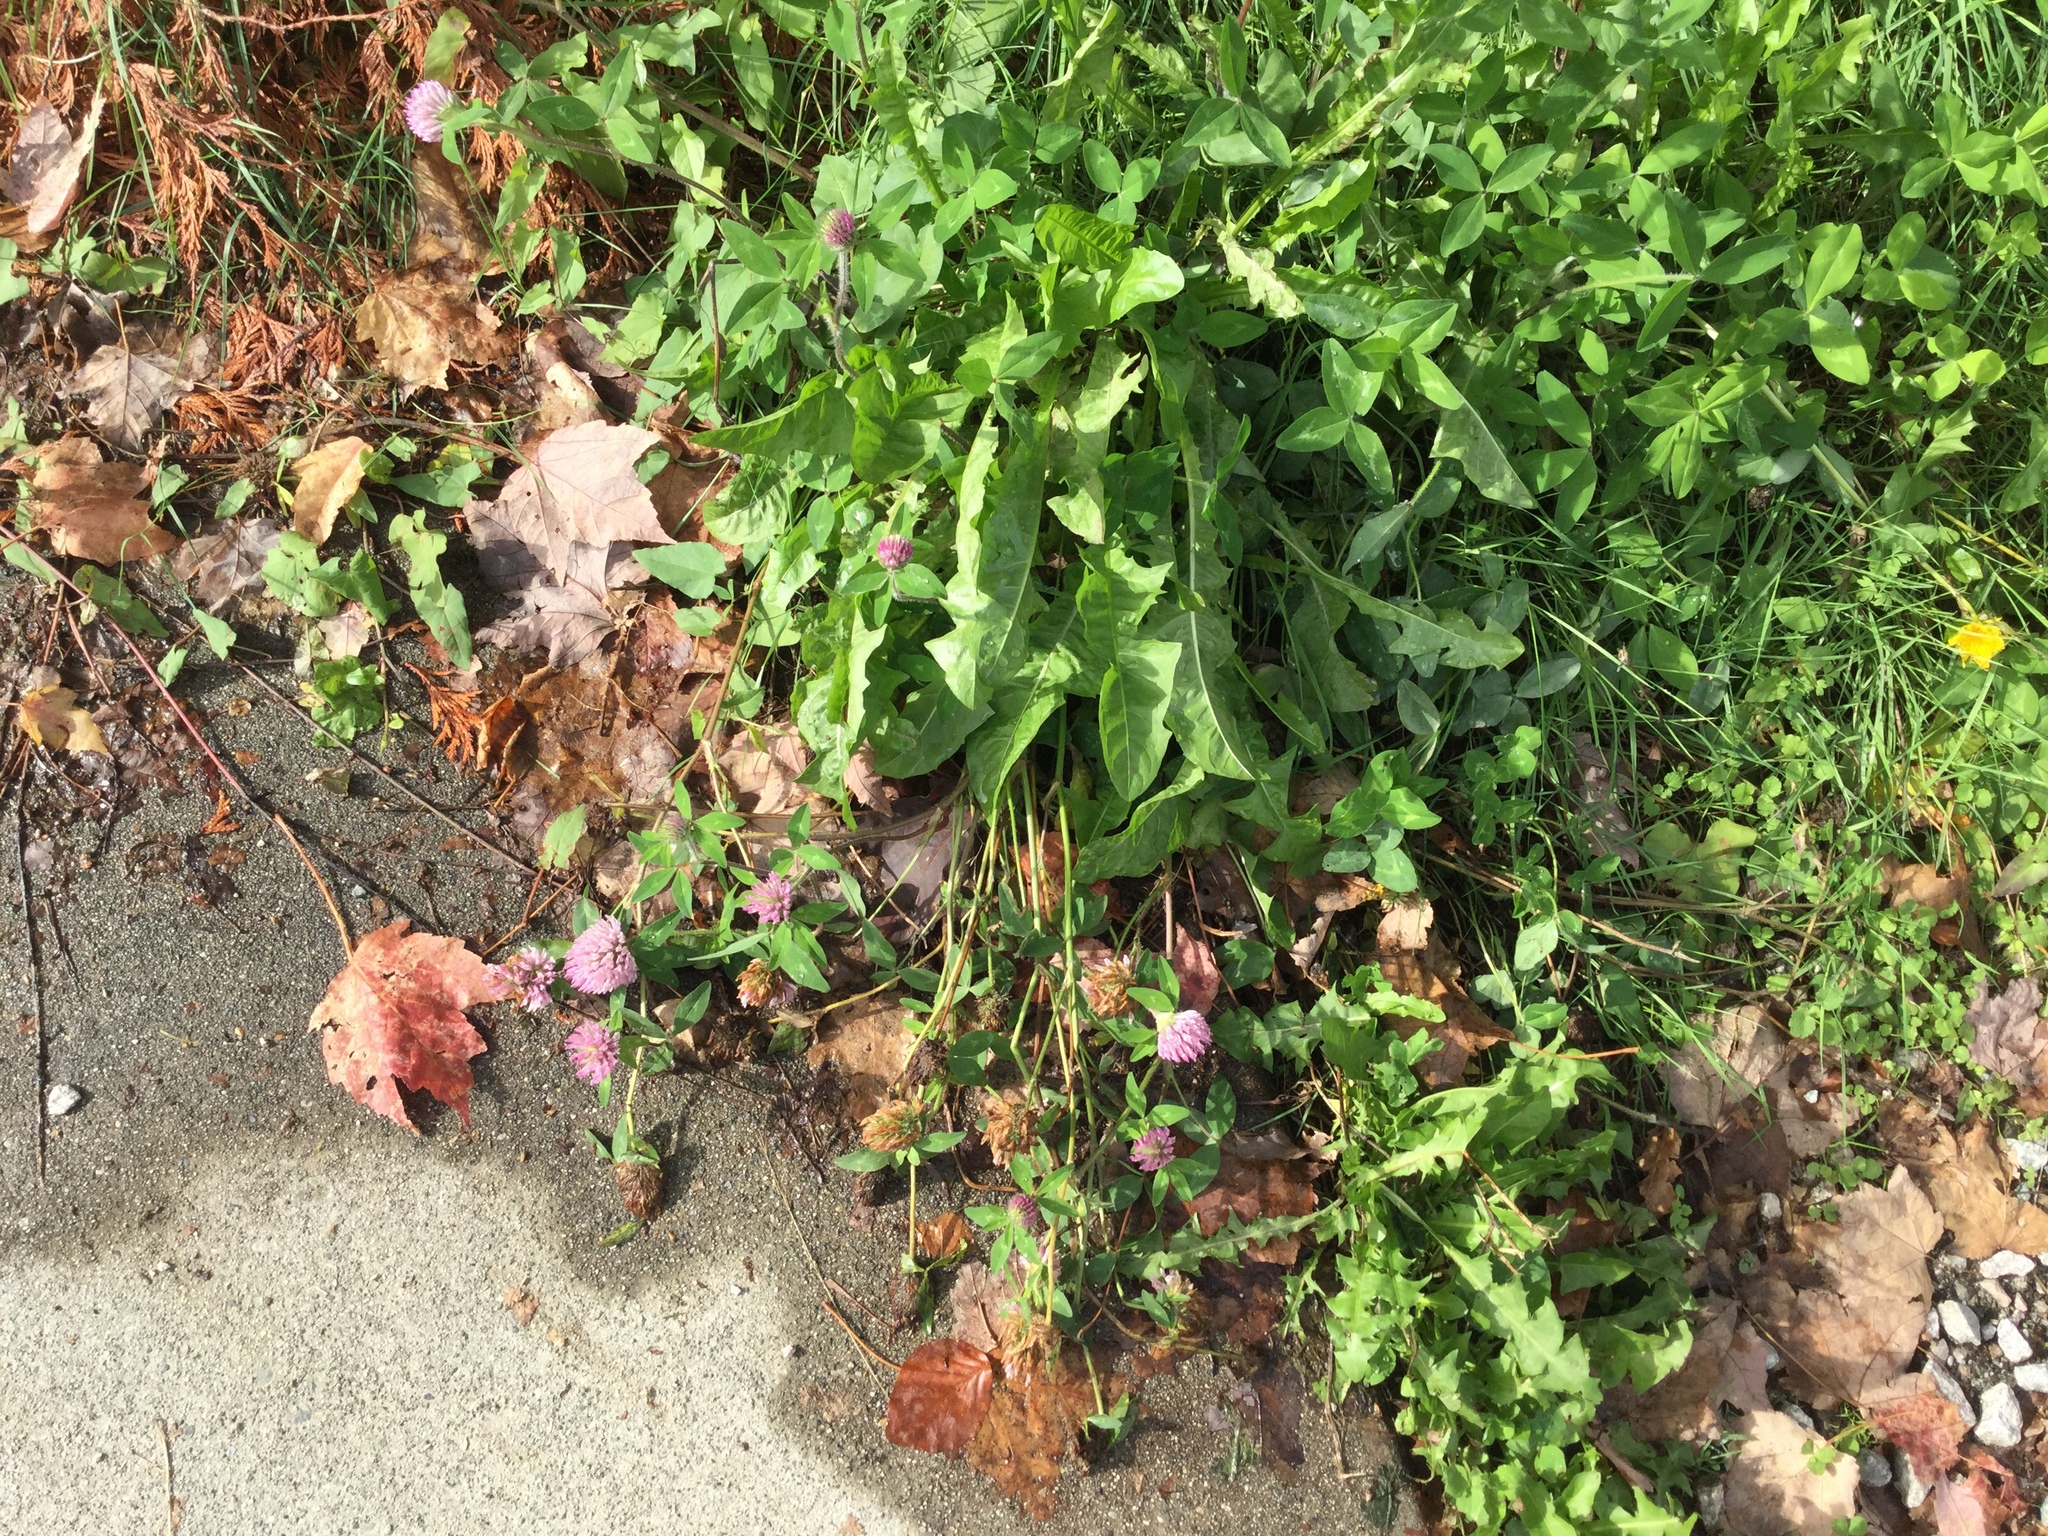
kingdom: Plantae
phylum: Tracheophyta
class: Magnoliopsida
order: Fabales
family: Fabaceae
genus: Trifolium
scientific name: Trifolium pratense
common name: Red clover
